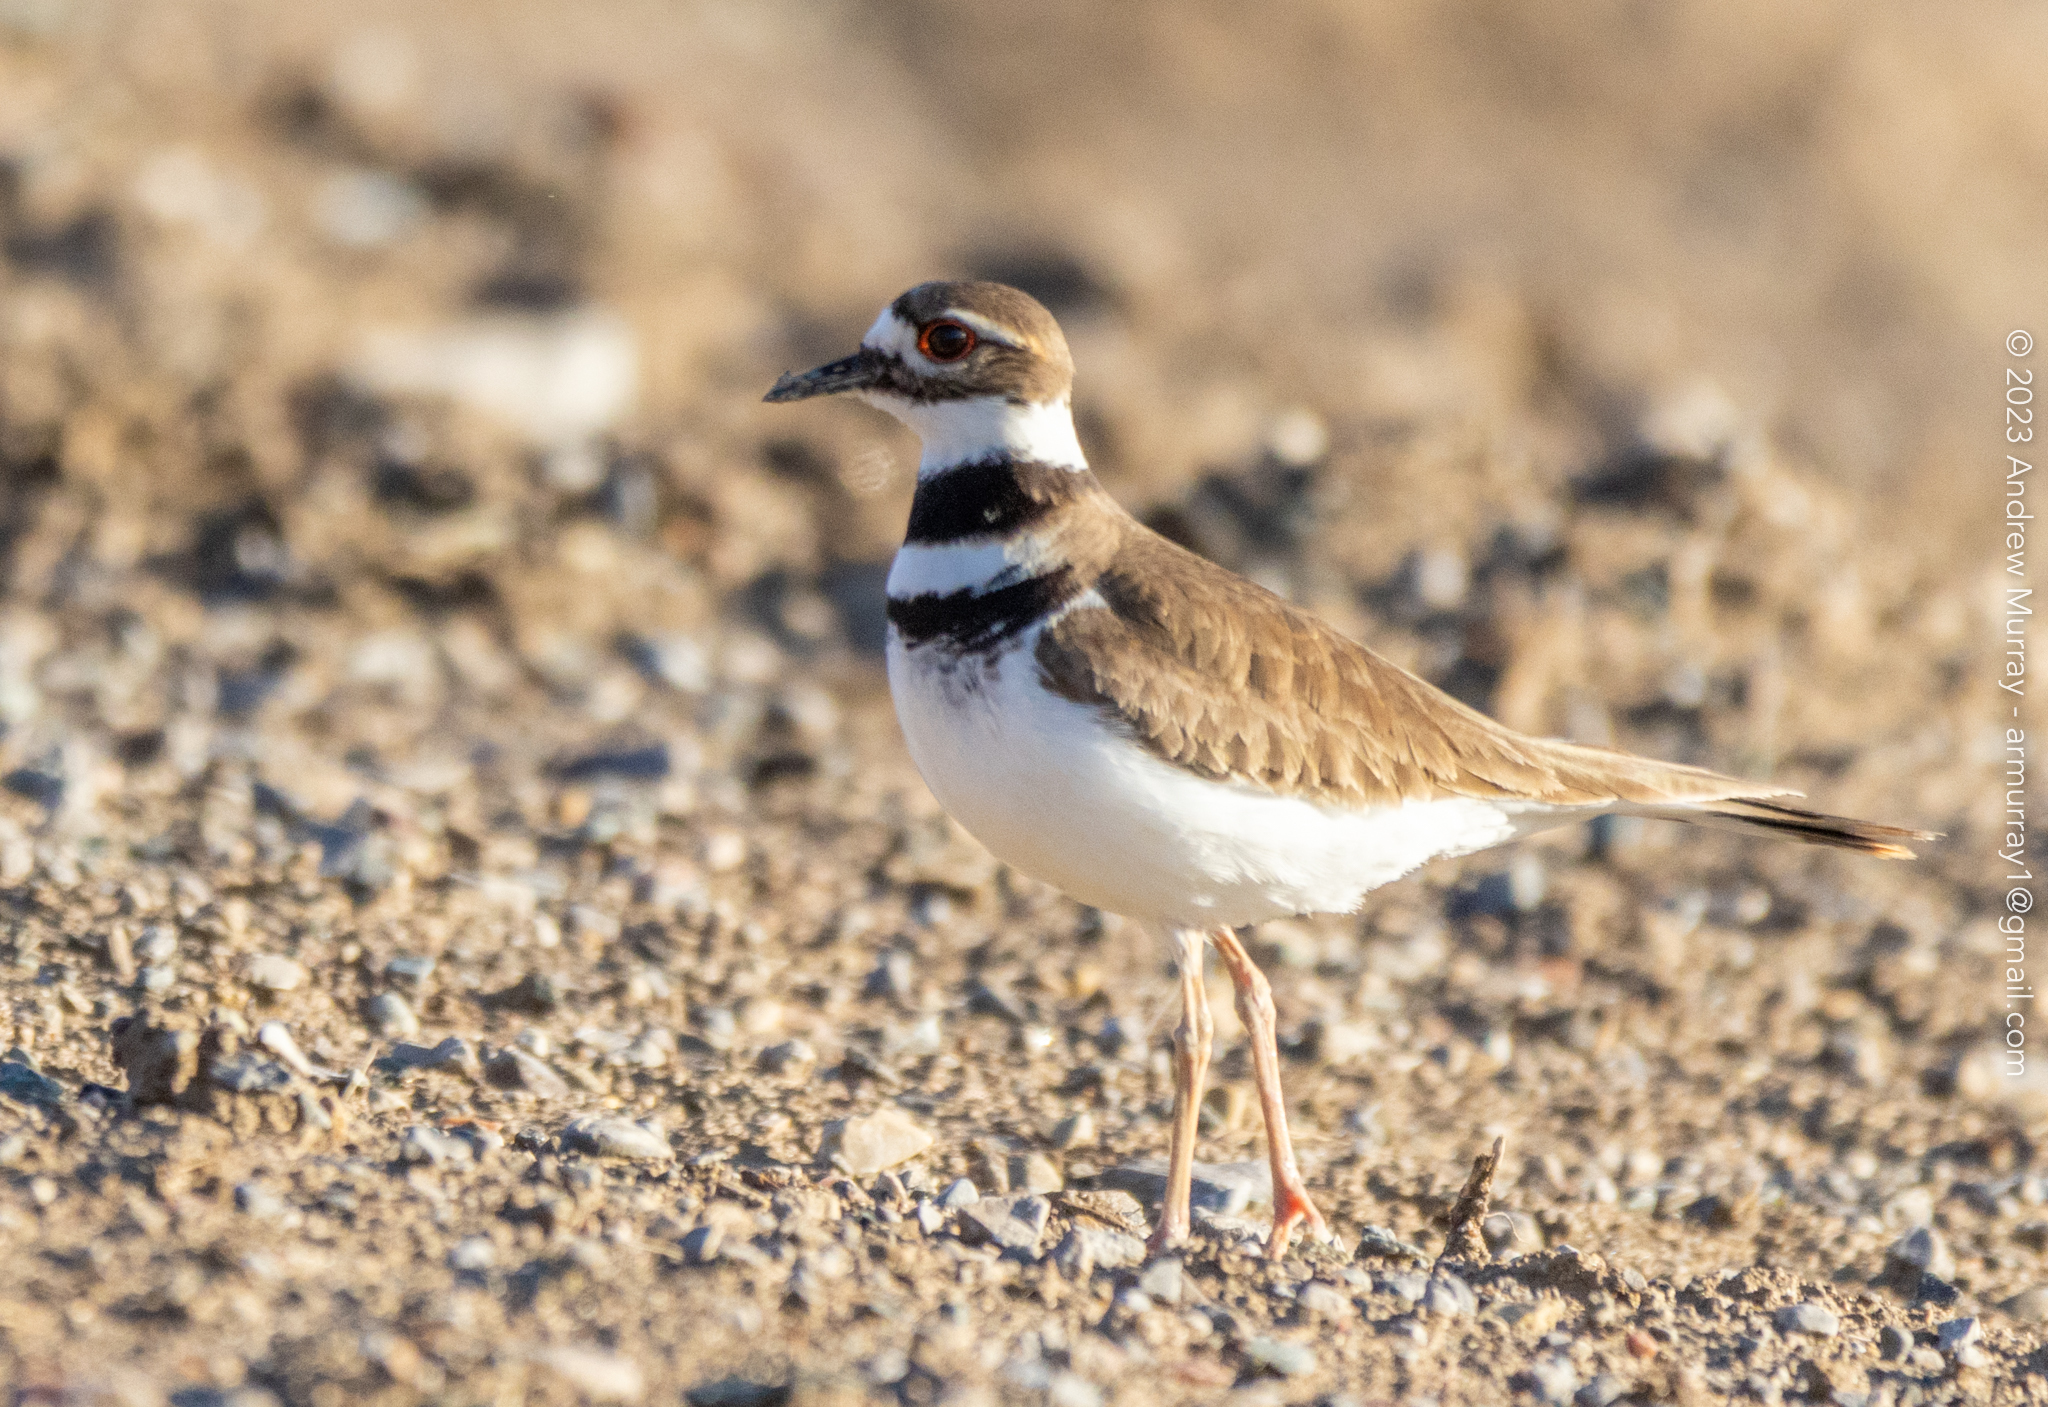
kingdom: Animalia
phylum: Chordata
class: Aves
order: Charadriiformes
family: Charadriidae
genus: Charadrius
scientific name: Charadrius vociferus
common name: Killdeer
